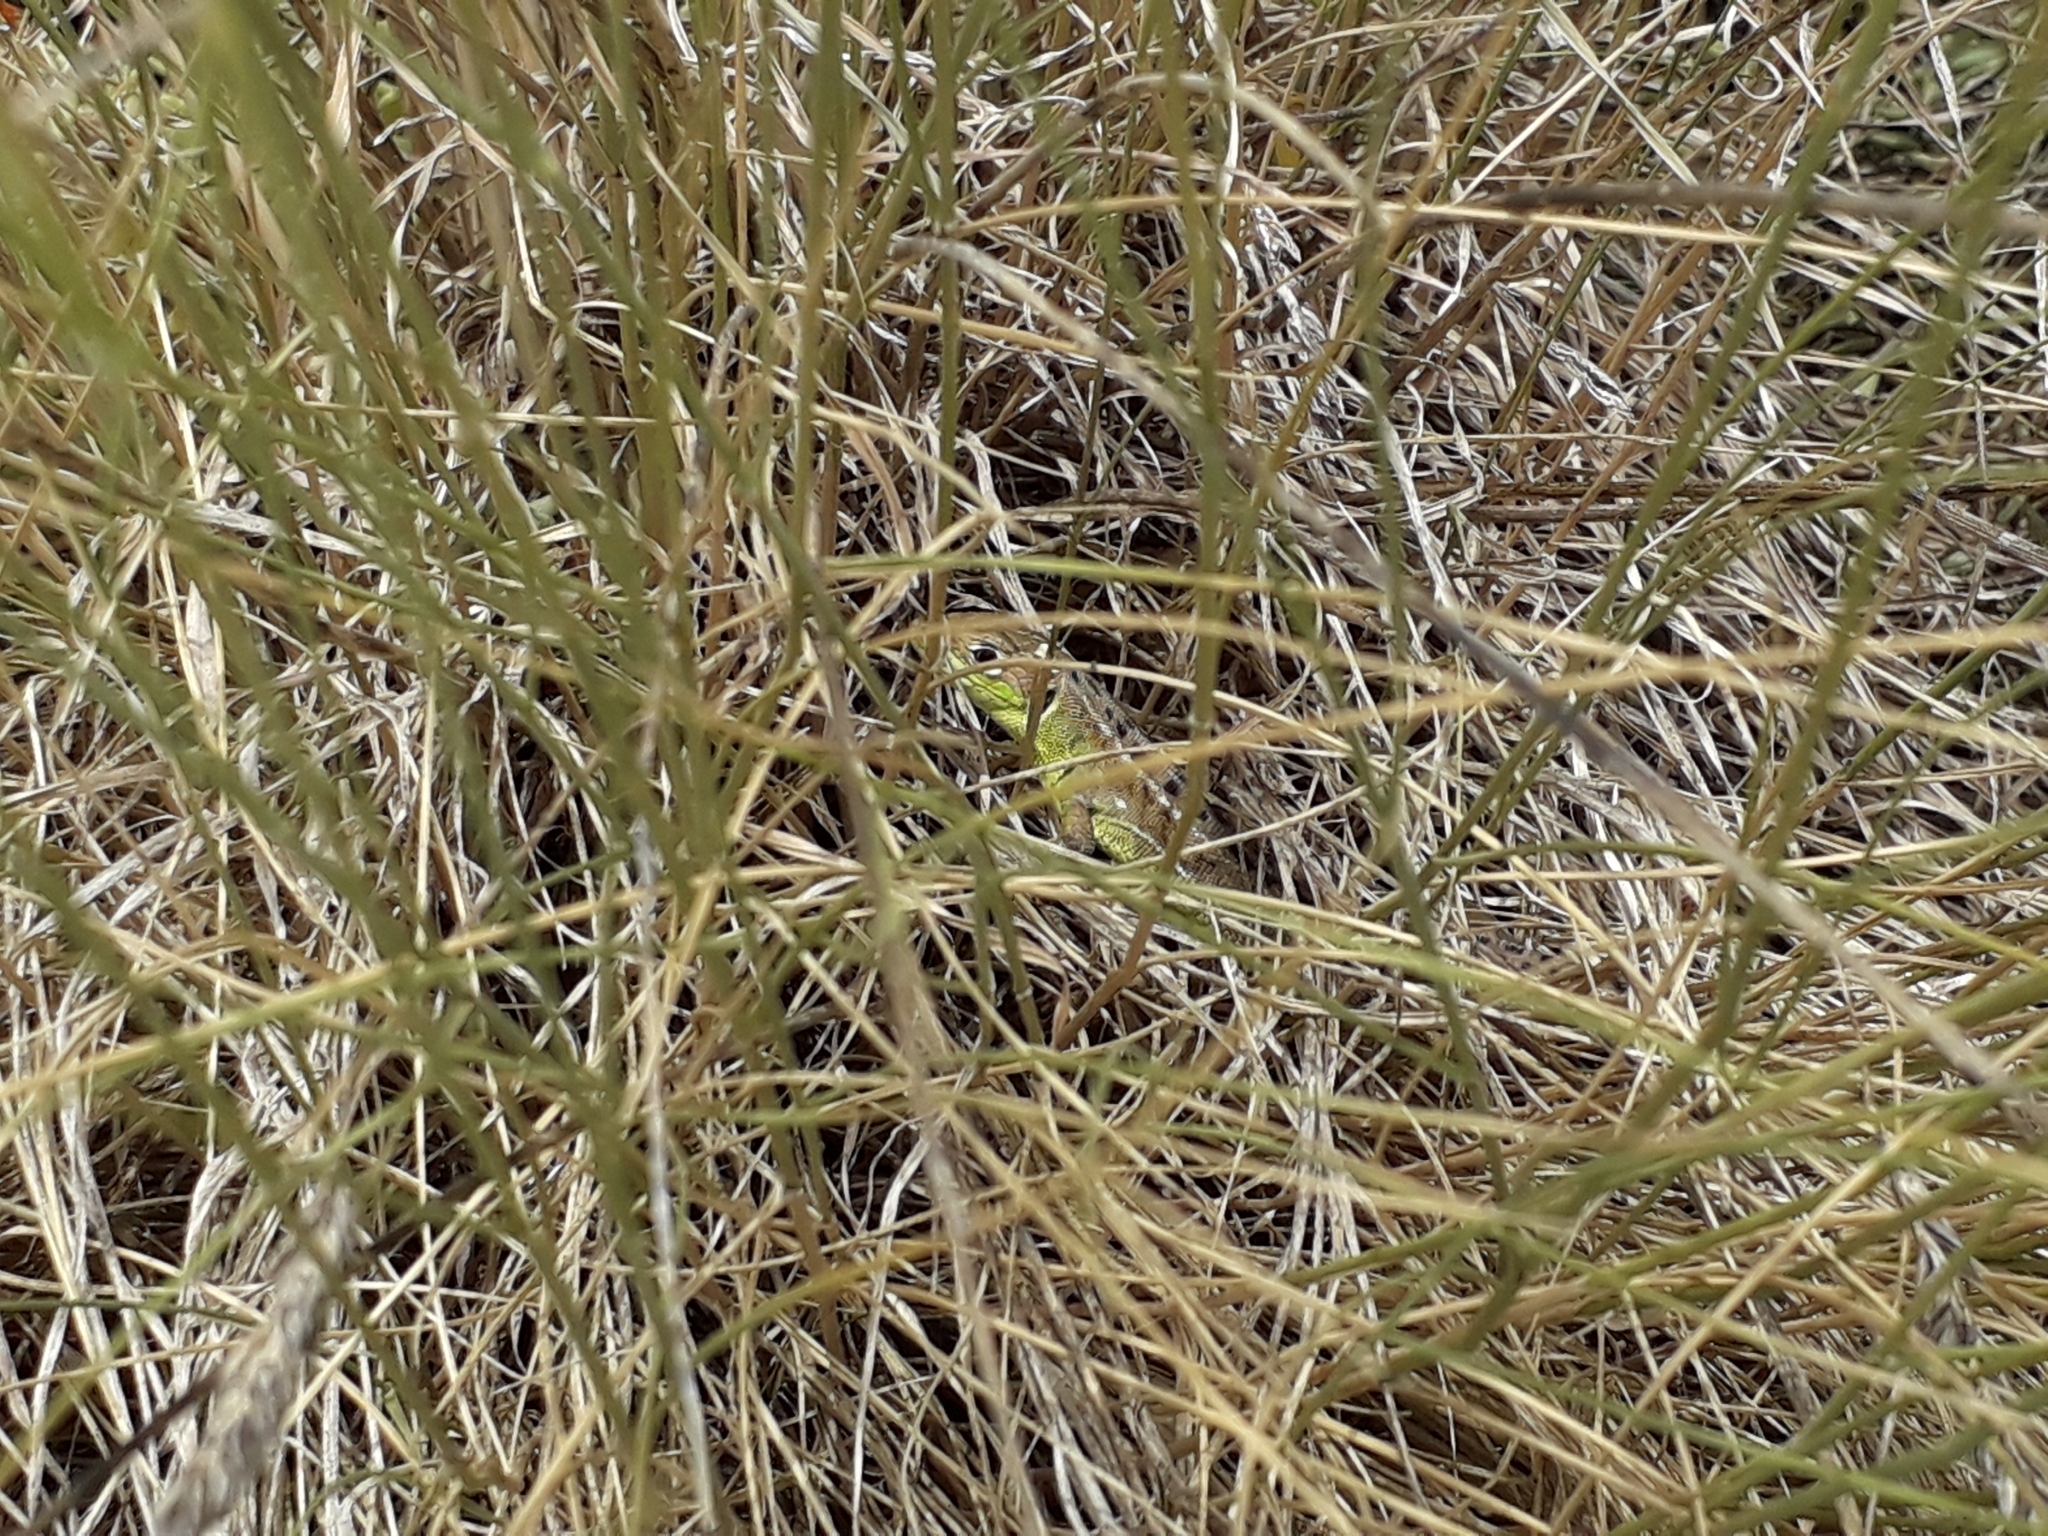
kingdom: Animalia
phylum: Chordata
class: Squamata
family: Lacertidae
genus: Lacerta
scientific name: Lacerta bilineata
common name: Western green lizard
